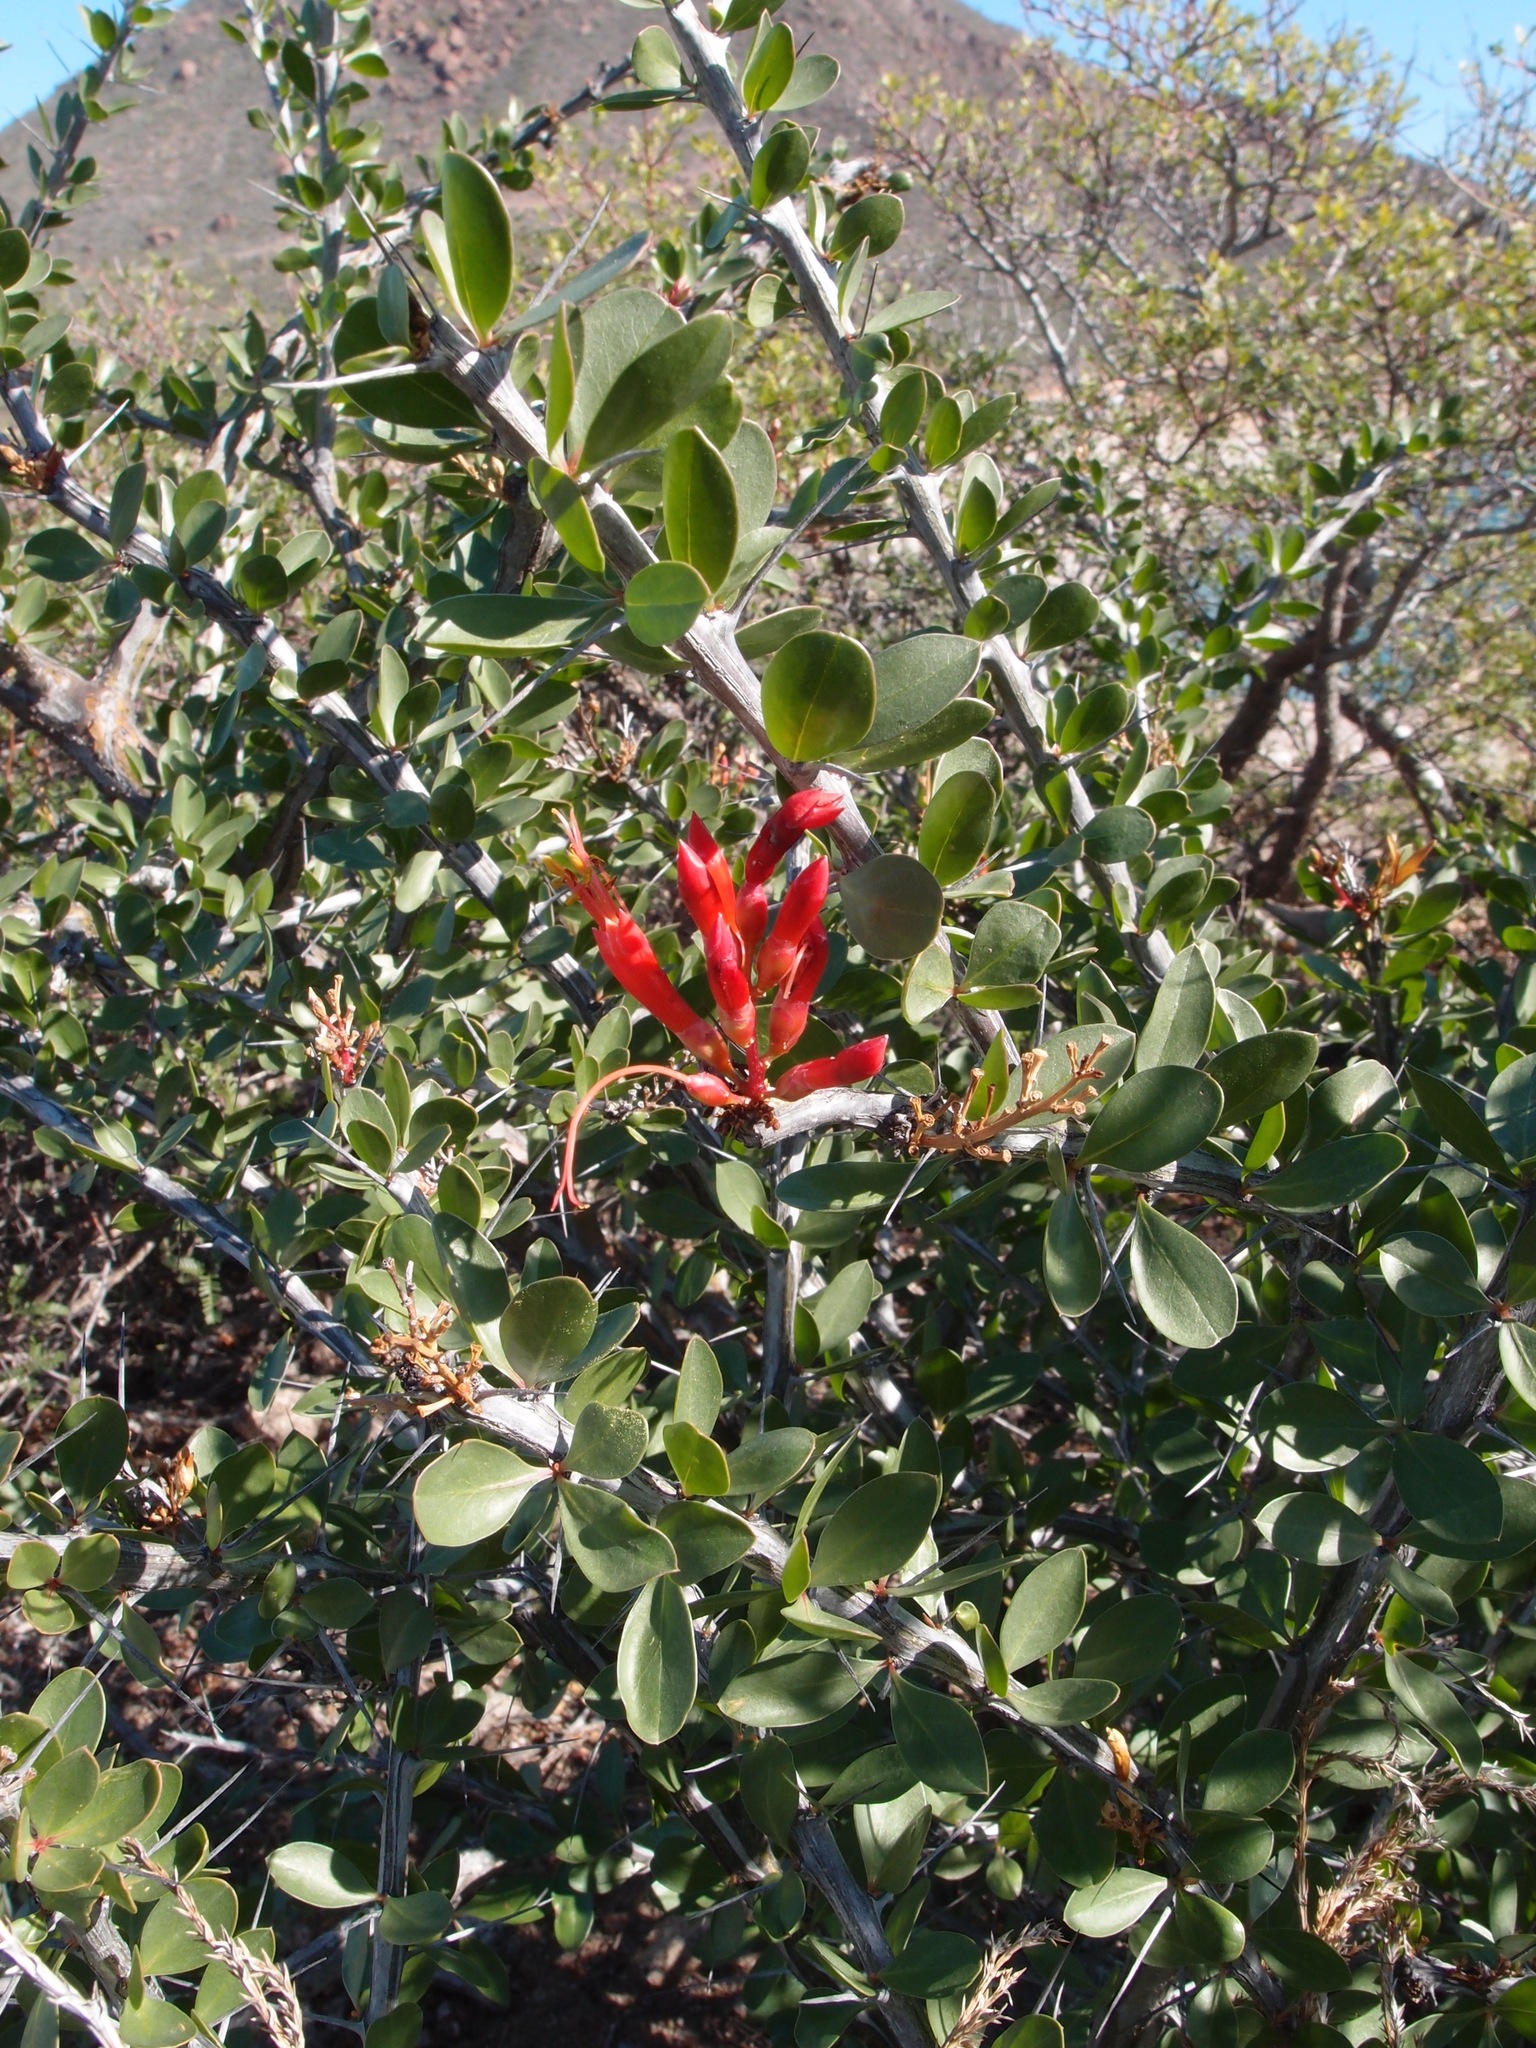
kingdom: Plantae
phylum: Tracheophyta
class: Magnoliopsida
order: Ericales
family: Fouquieriaceae
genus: Fouquieria
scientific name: Fouquieria diguetii
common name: Adam's tree
